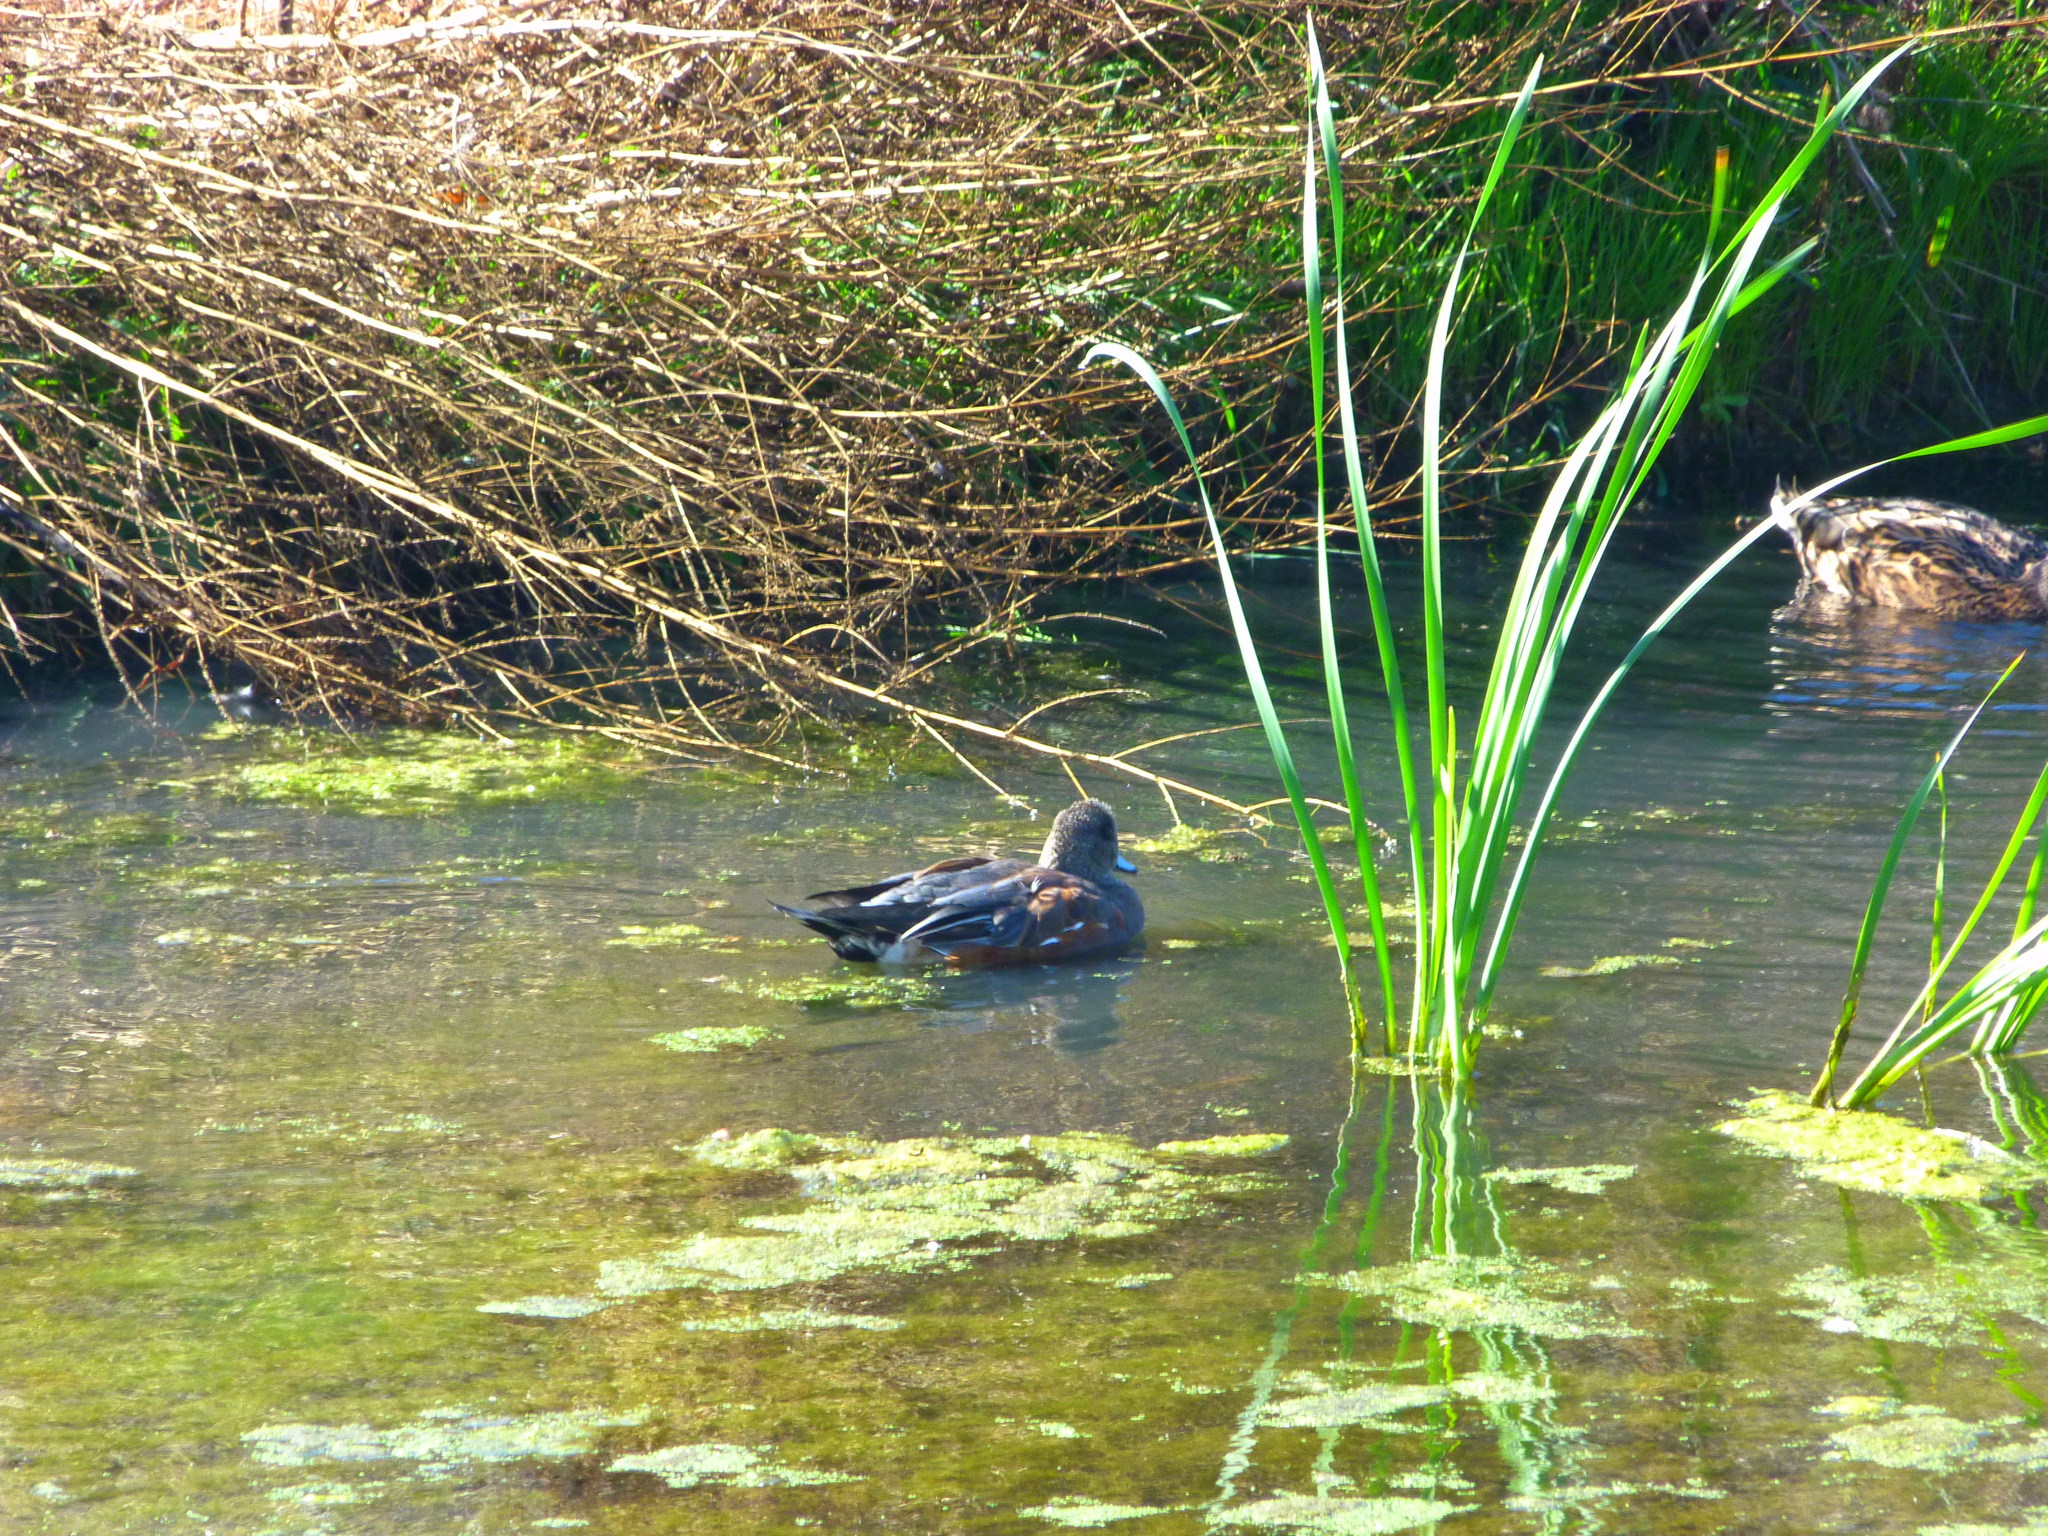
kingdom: Animalia
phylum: Chordata
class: Aves
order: Anseriformes
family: Anatidae
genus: Mareca
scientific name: Mareca americana
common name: American wigeon
